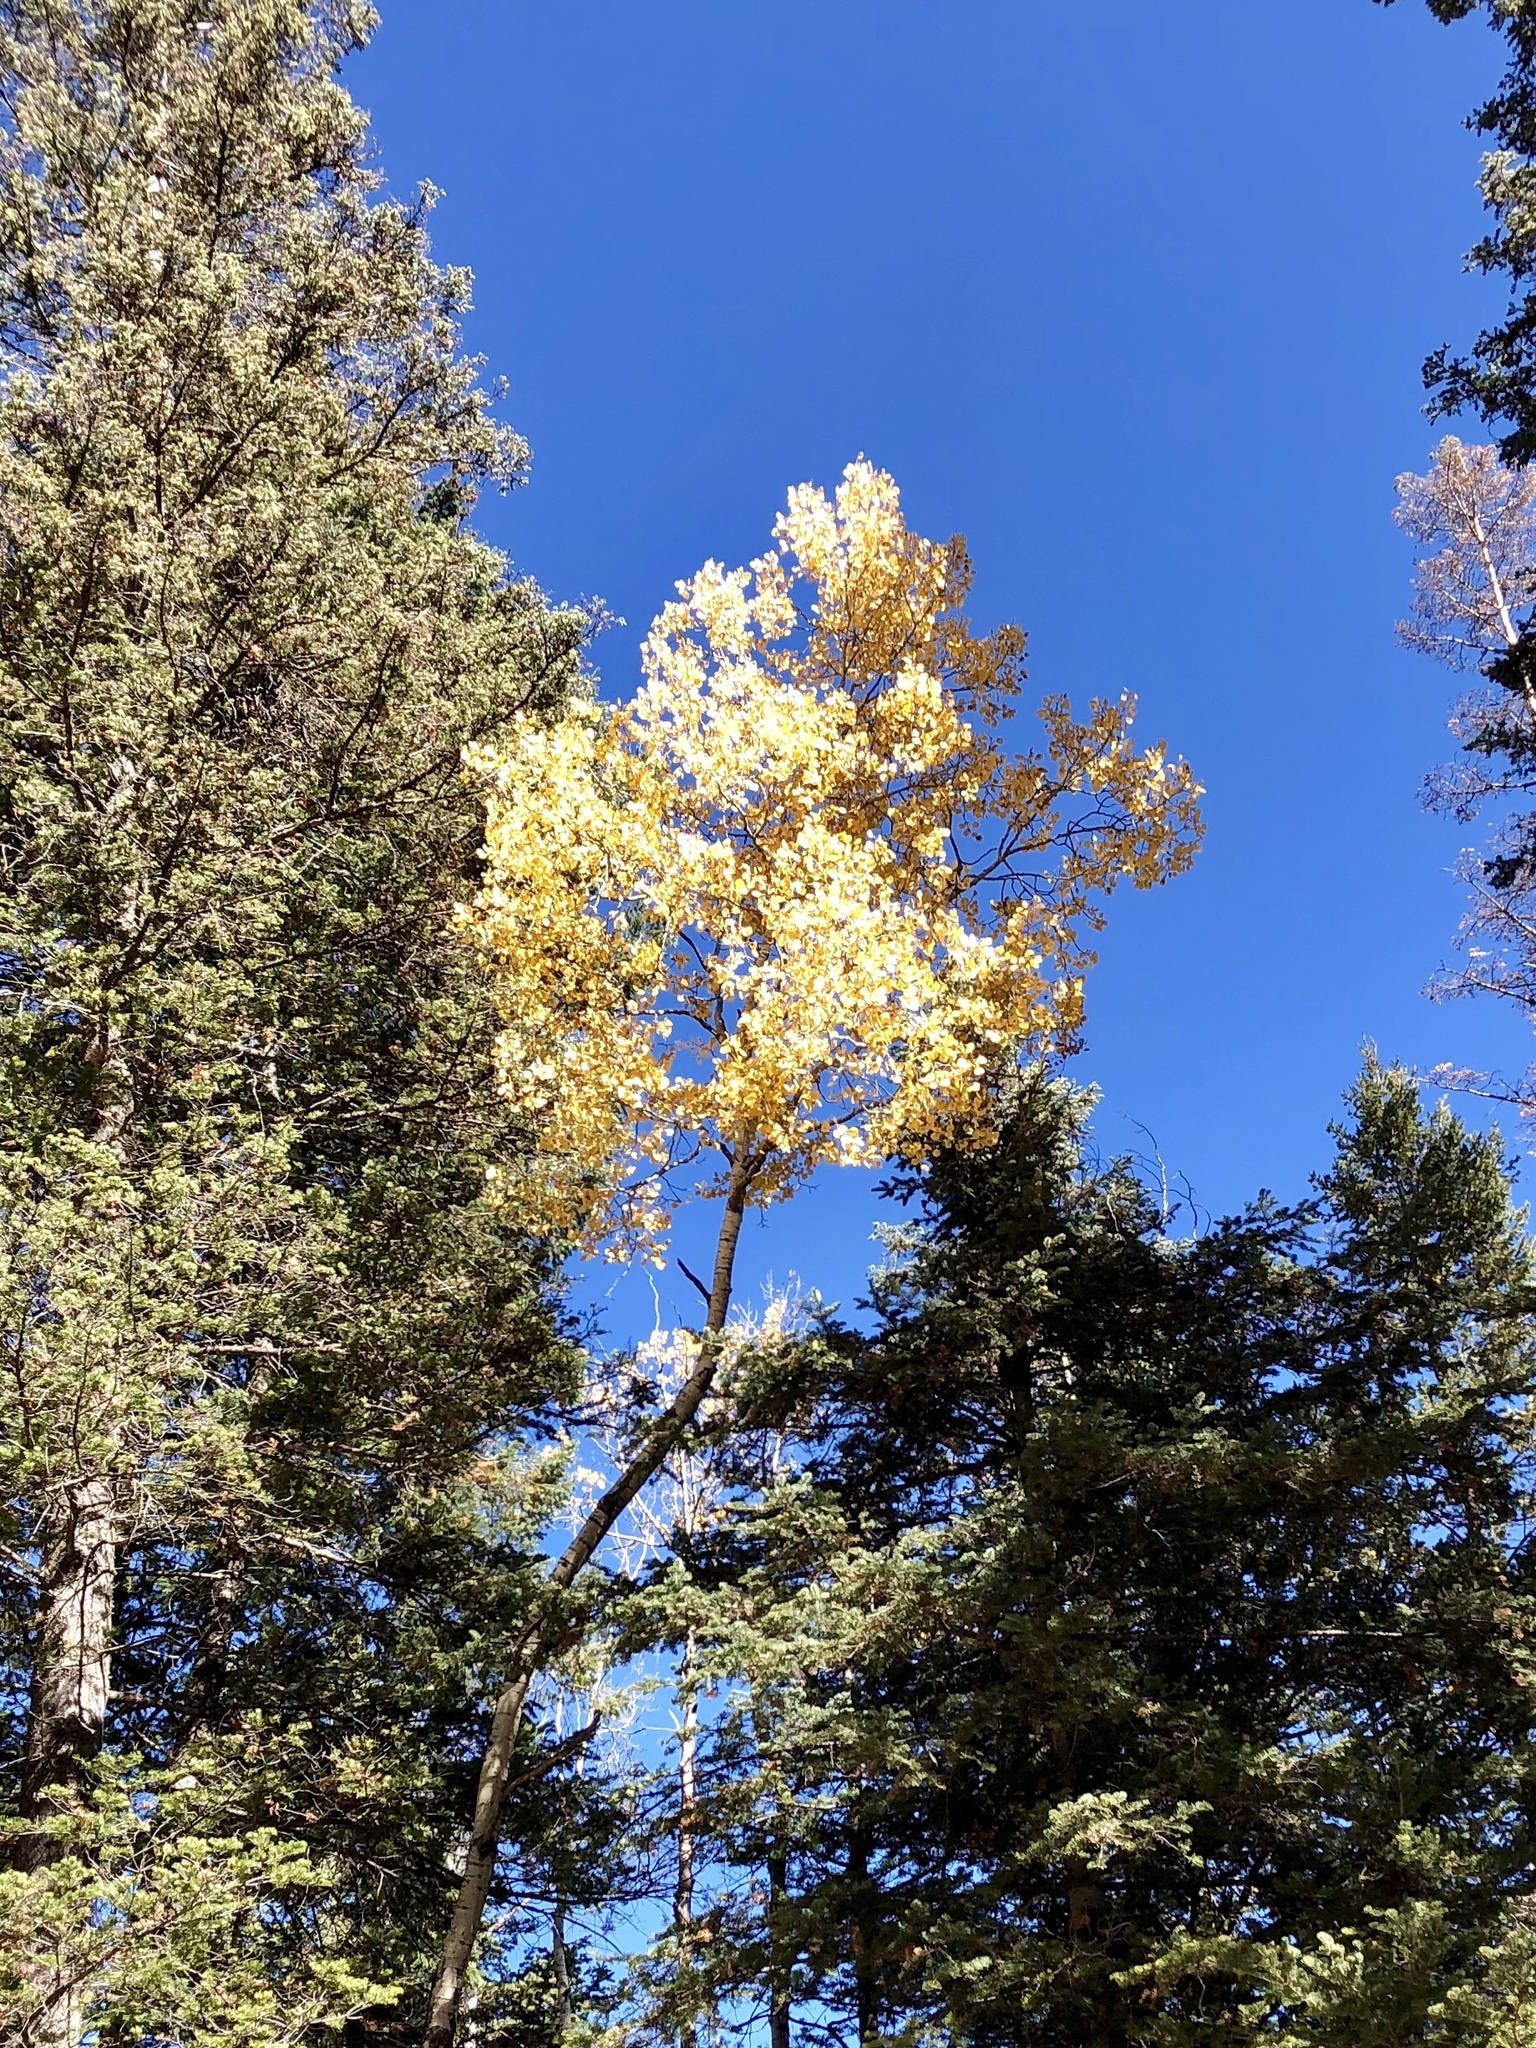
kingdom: Plantae
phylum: Tracheophyta
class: Magnoliopsida
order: Malpighiales
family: Salicaceae
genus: Populus
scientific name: Populus tremuloides
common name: Quaking aspen
